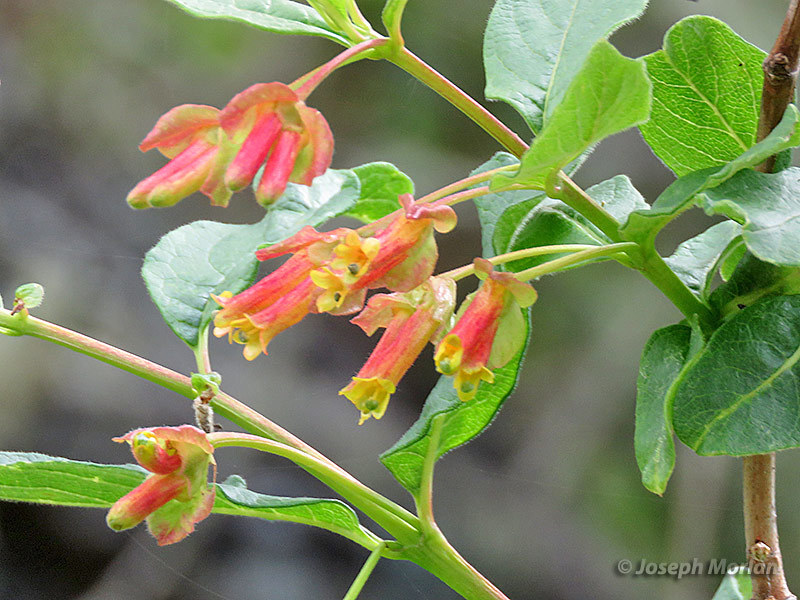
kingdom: Plantae
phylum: Tracheophyta
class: Magnoliopsida
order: Dipsacales
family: Caprifoliaceae
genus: Lonicera
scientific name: Lonicera involucrata
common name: Californian honeysuckle
